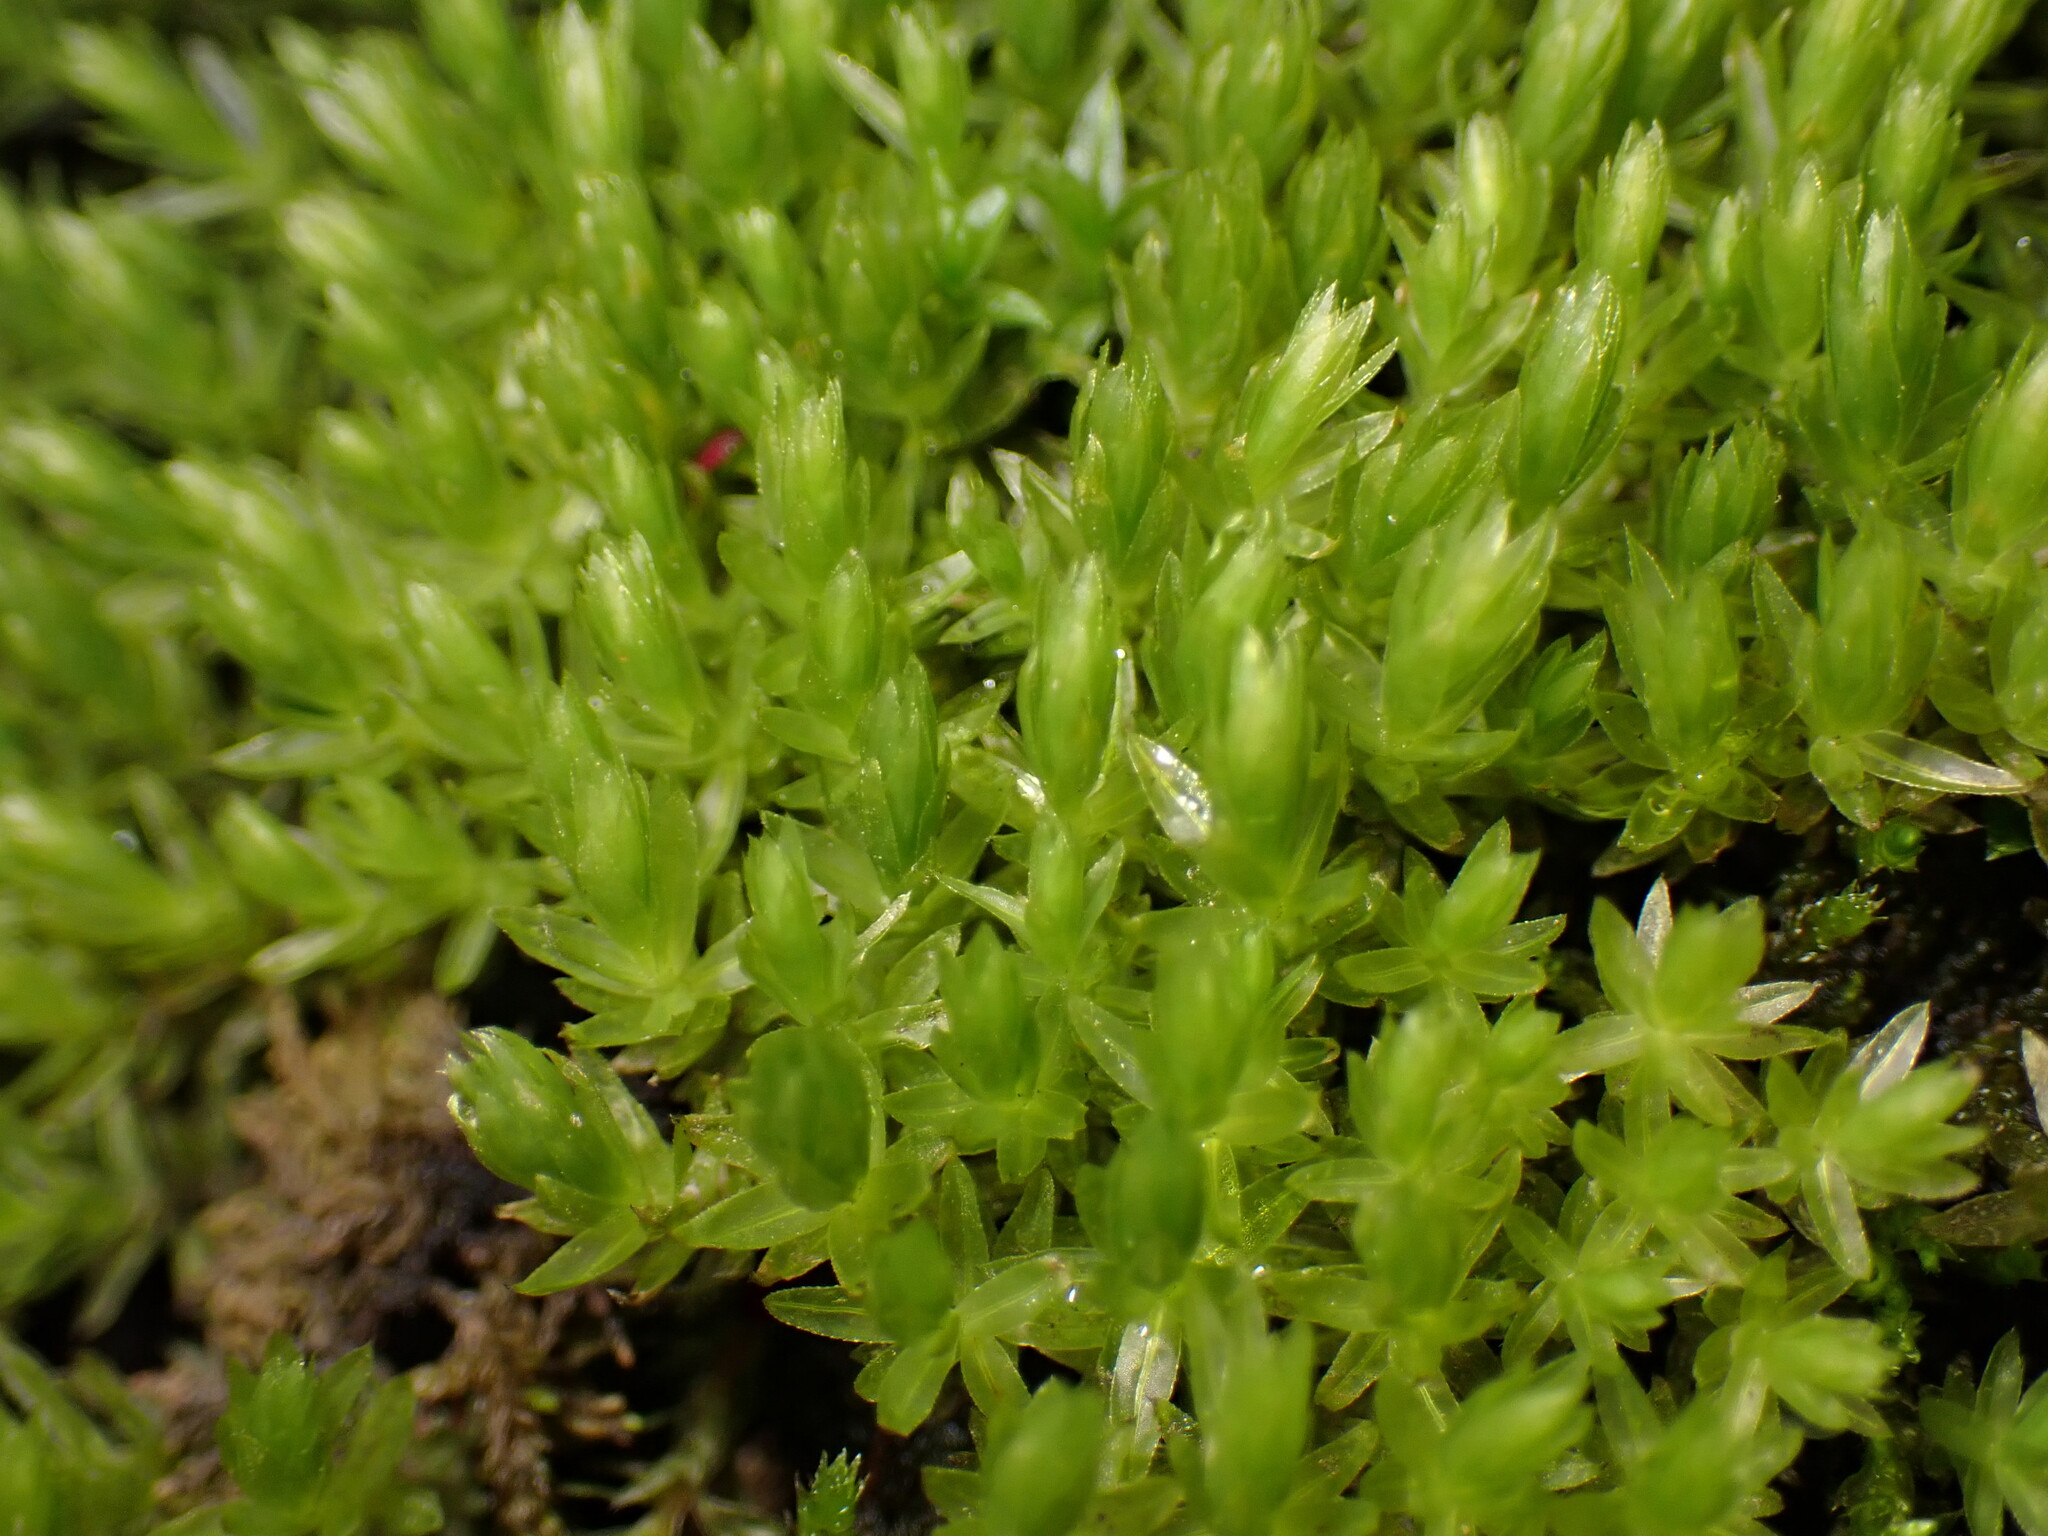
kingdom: Plantae
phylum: Bryophyta
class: Bryopsida
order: Bryales
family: Mniaceae
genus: Mnium
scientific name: Mnium hornum
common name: Swan's-neck leafy moss
